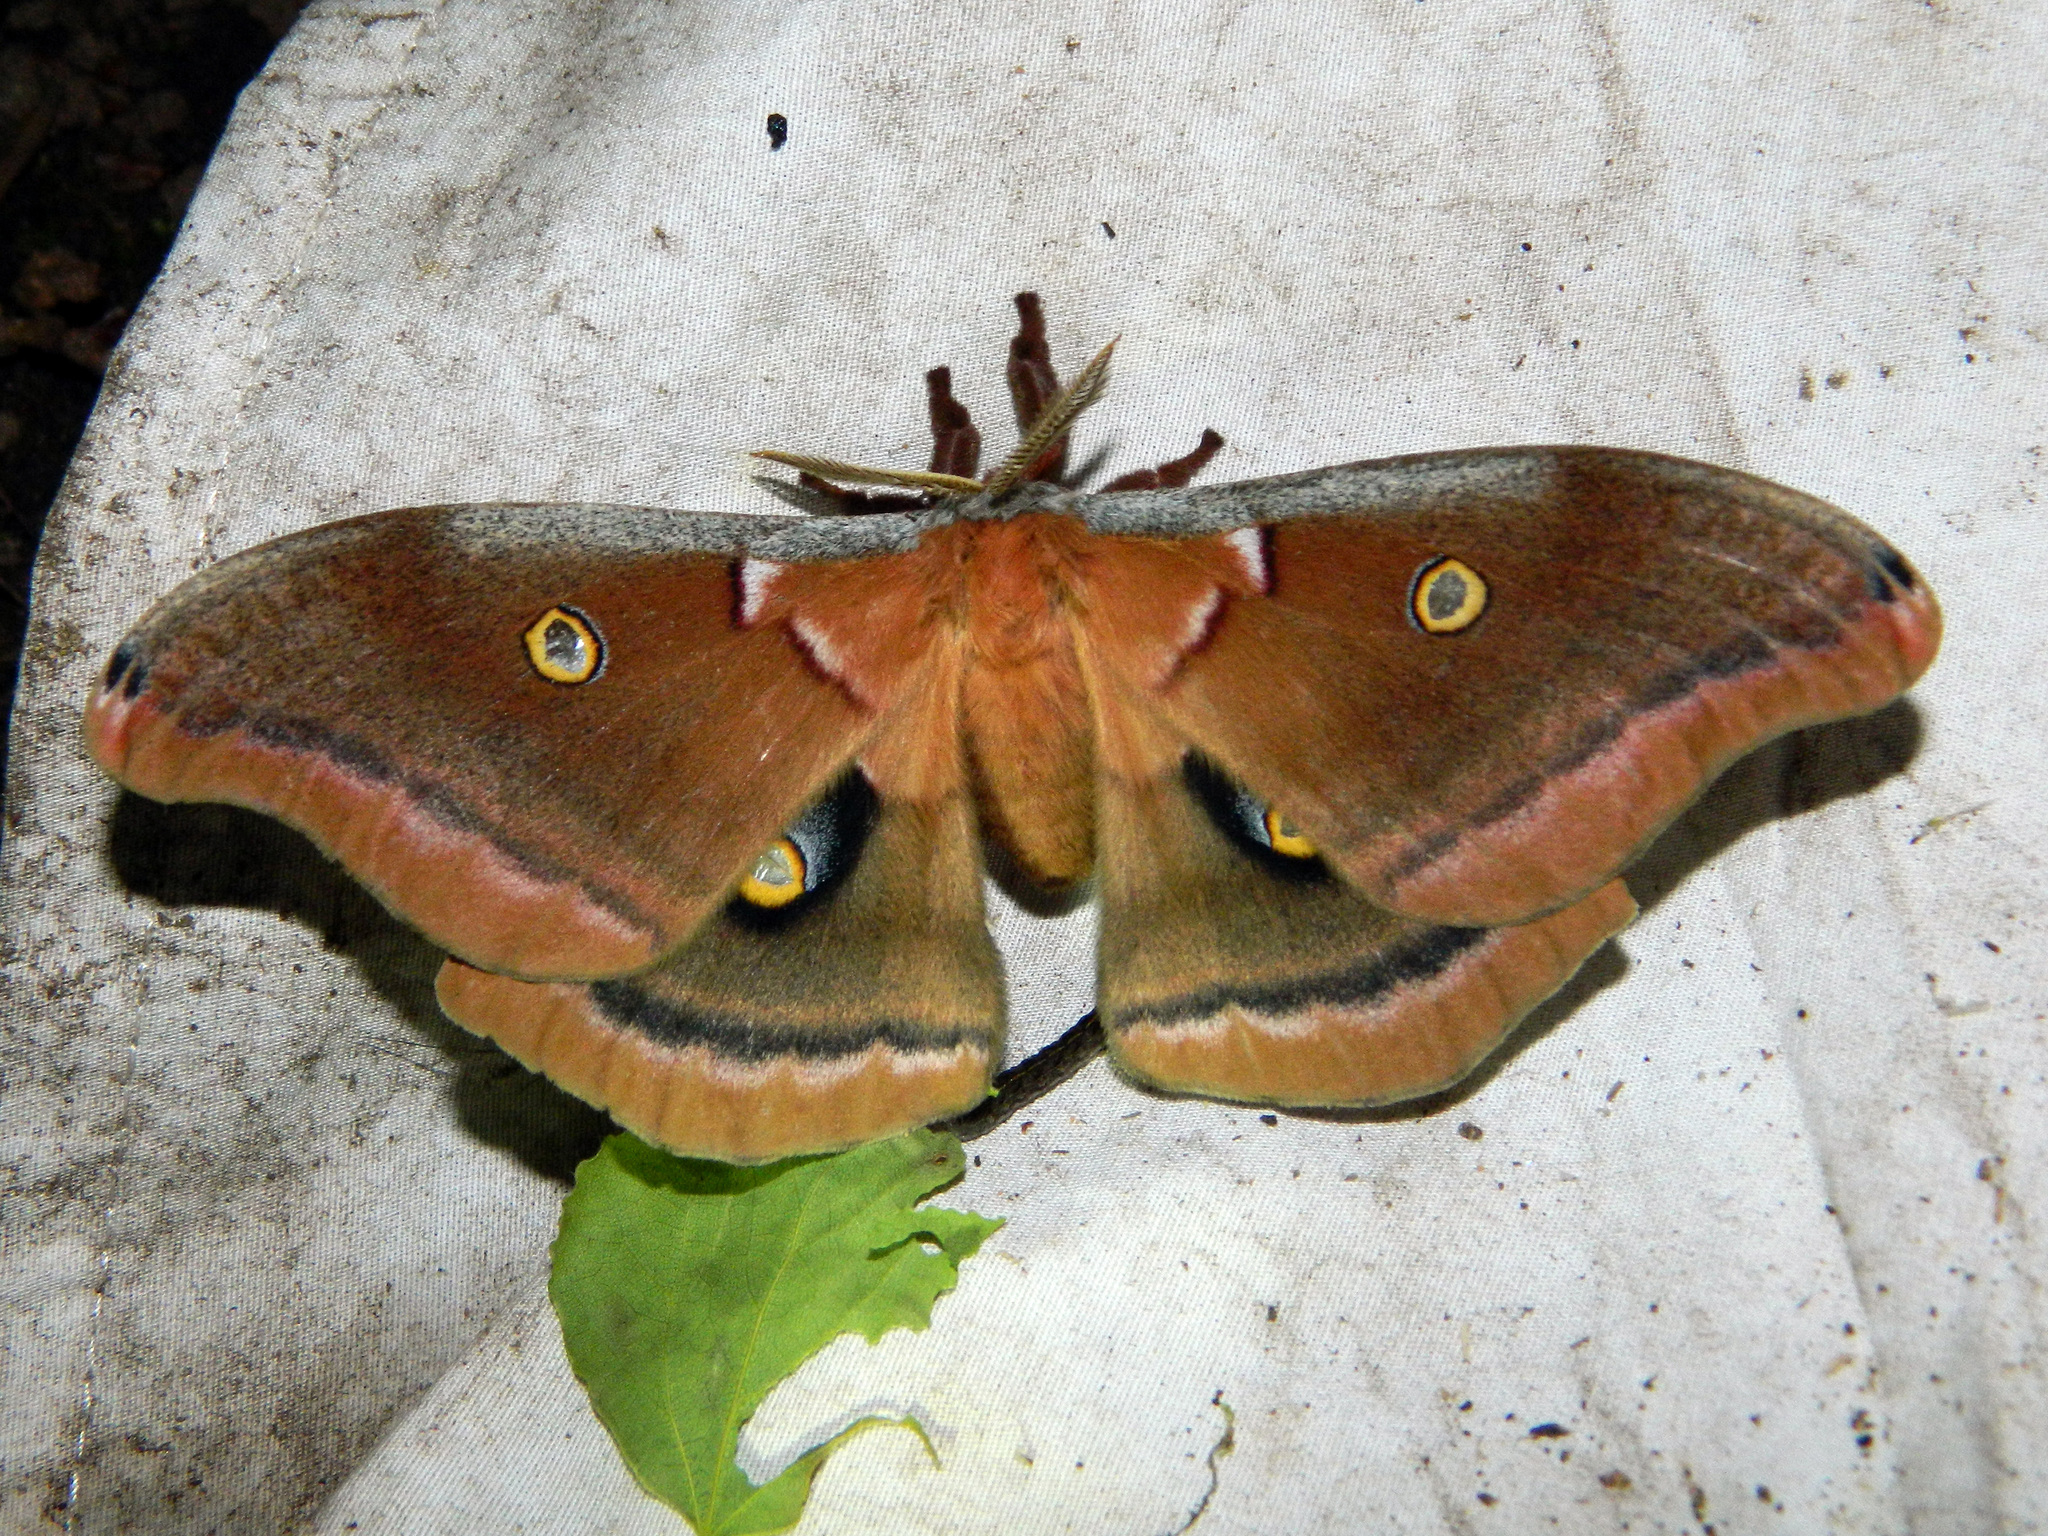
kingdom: Animalia
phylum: Arthropoda
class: Insecta
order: Lepidoptera
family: Saturniidae
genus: Antheraea
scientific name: Antheraea polyphemus
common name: Polyphemus moth
